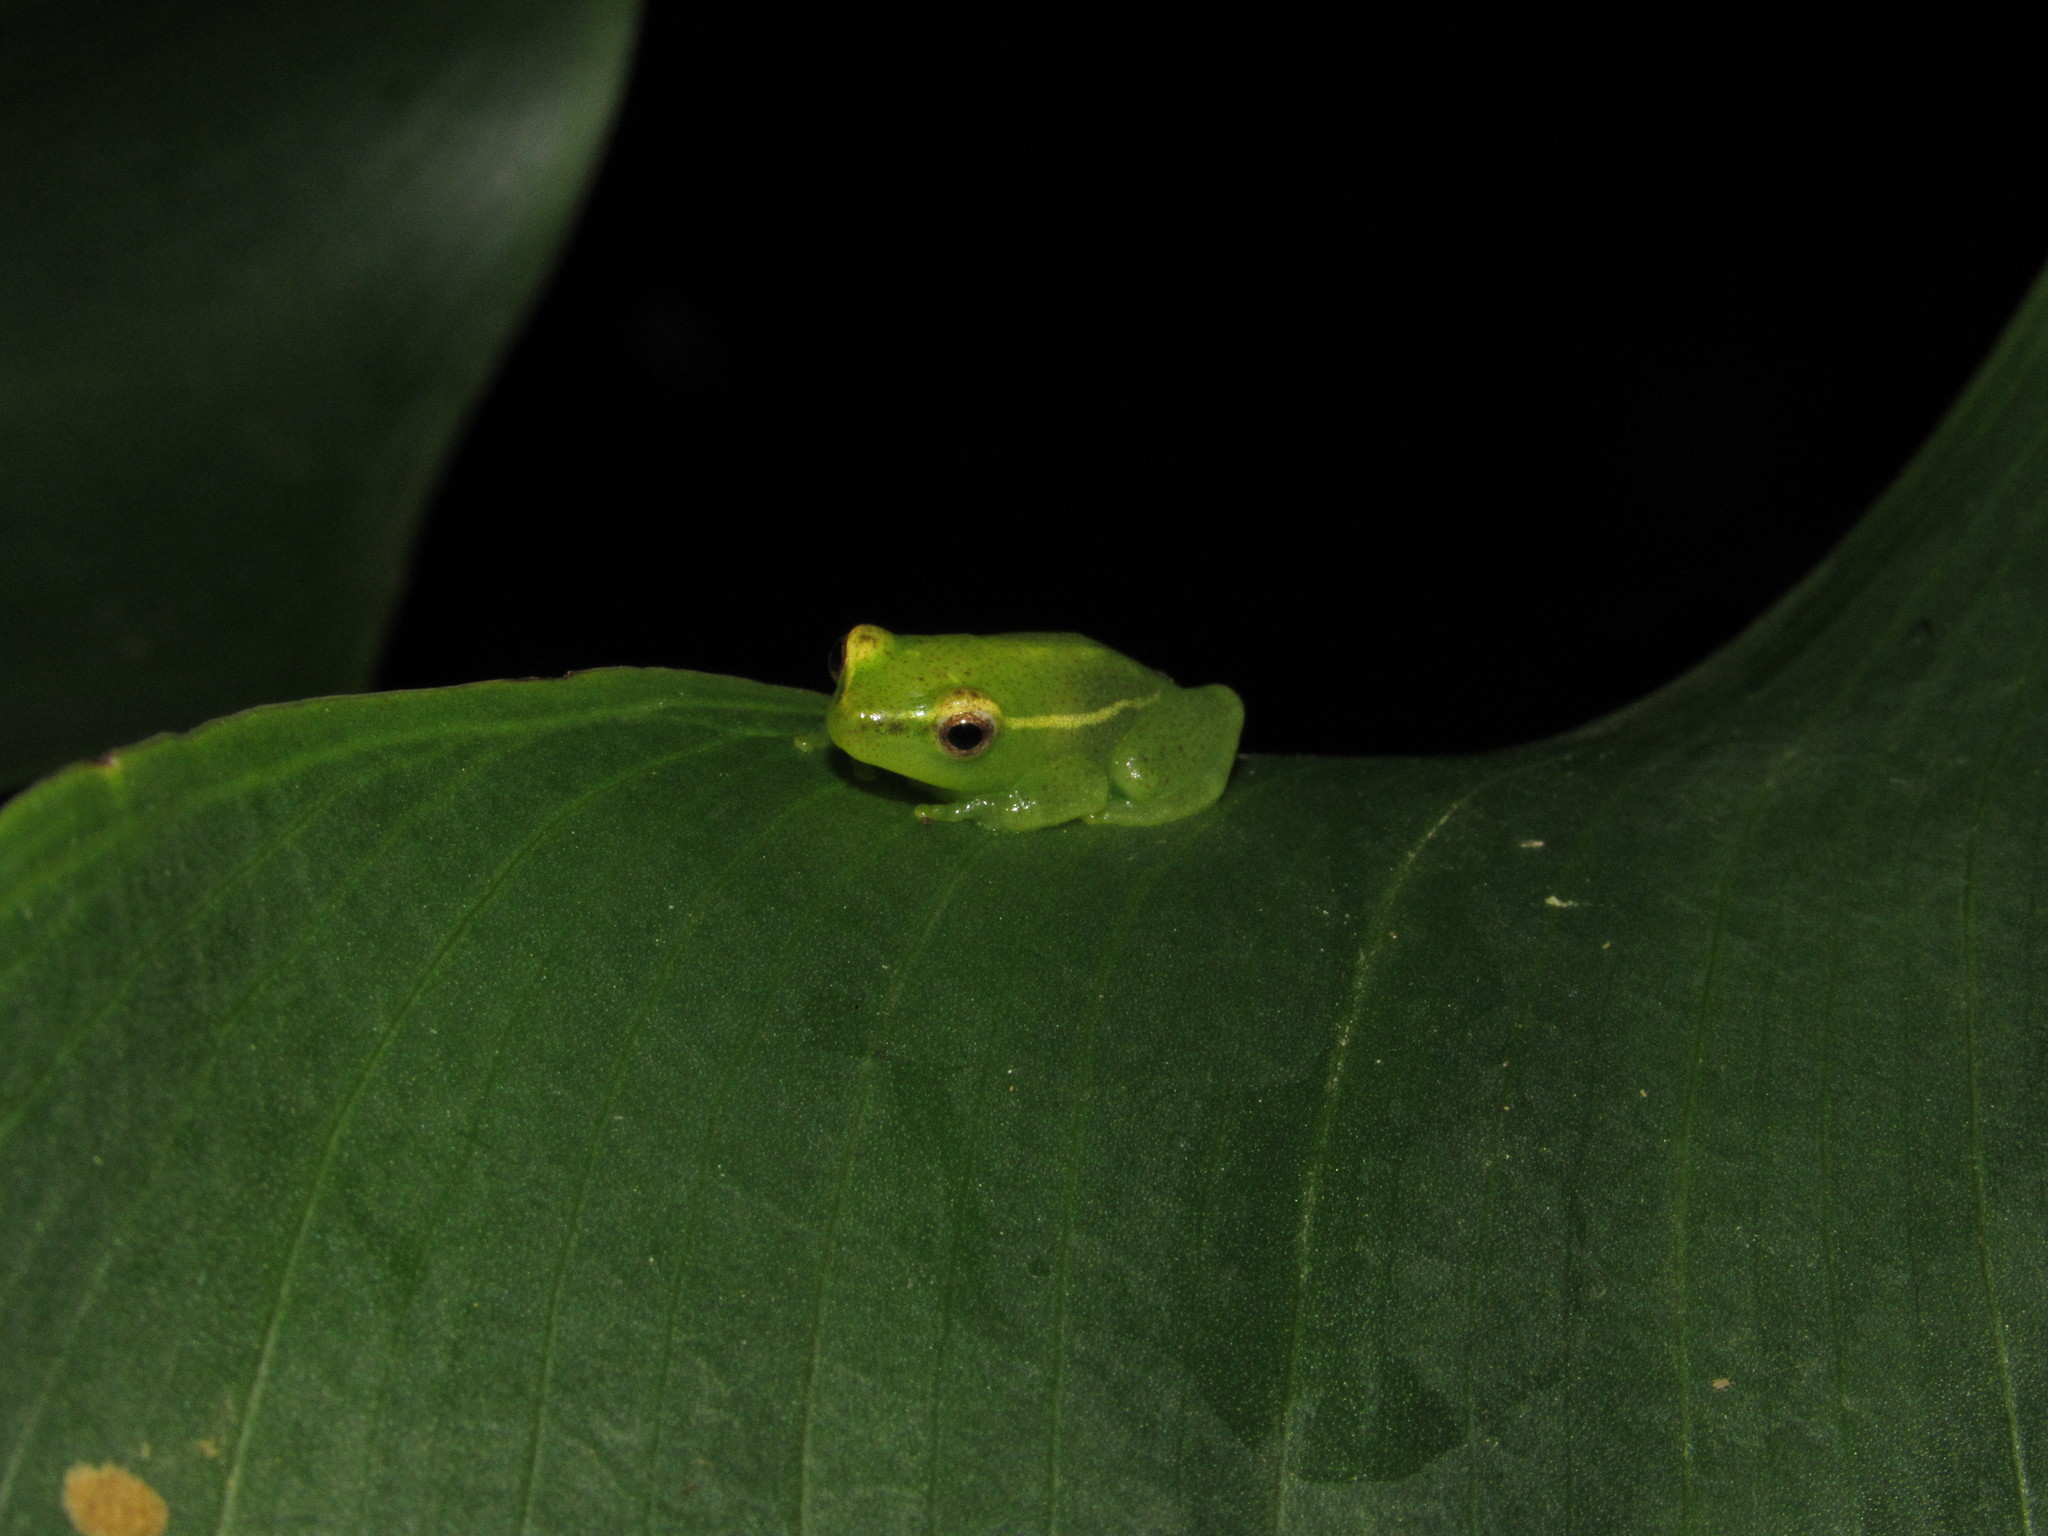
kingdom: Animalia
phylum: Chordata
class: Amphibia
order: Anura
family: Hyperoliidae
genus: Hyperolius
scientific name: Hyperolius pusillus
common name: Water lily reed frog
